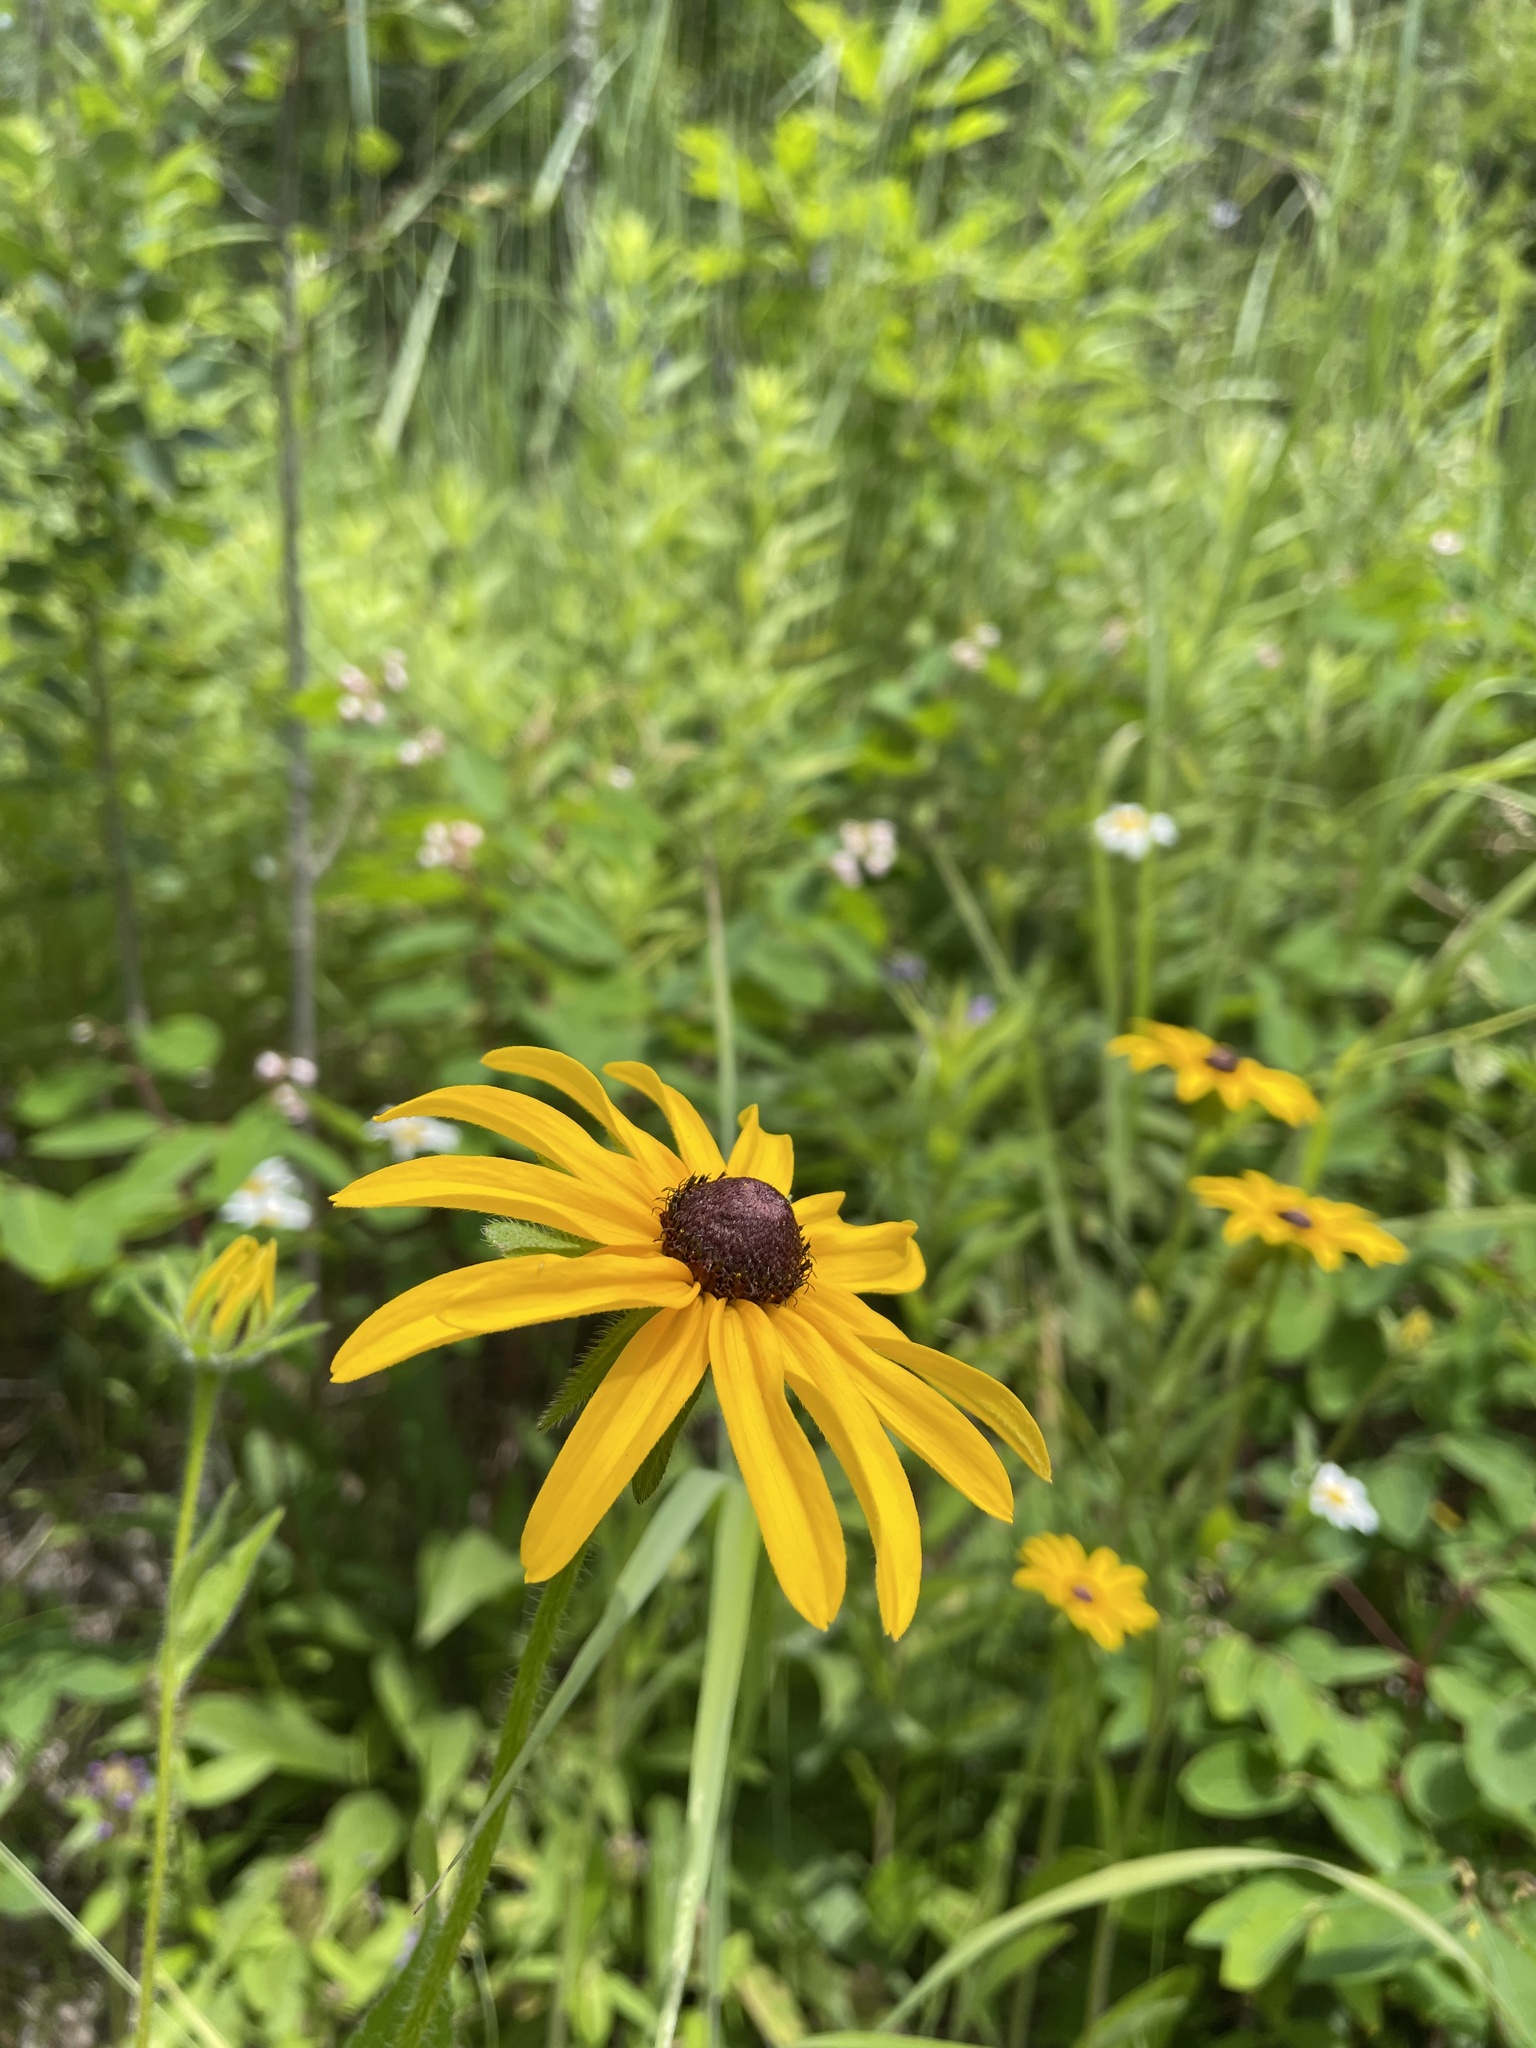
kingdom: Plantae
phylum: Tracheophyta
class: Magnoliopsida
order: Asterales
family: Asteraceae
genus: Rudbeckia
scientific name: Rudbeckia hirta
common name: Black-eyed-susan
